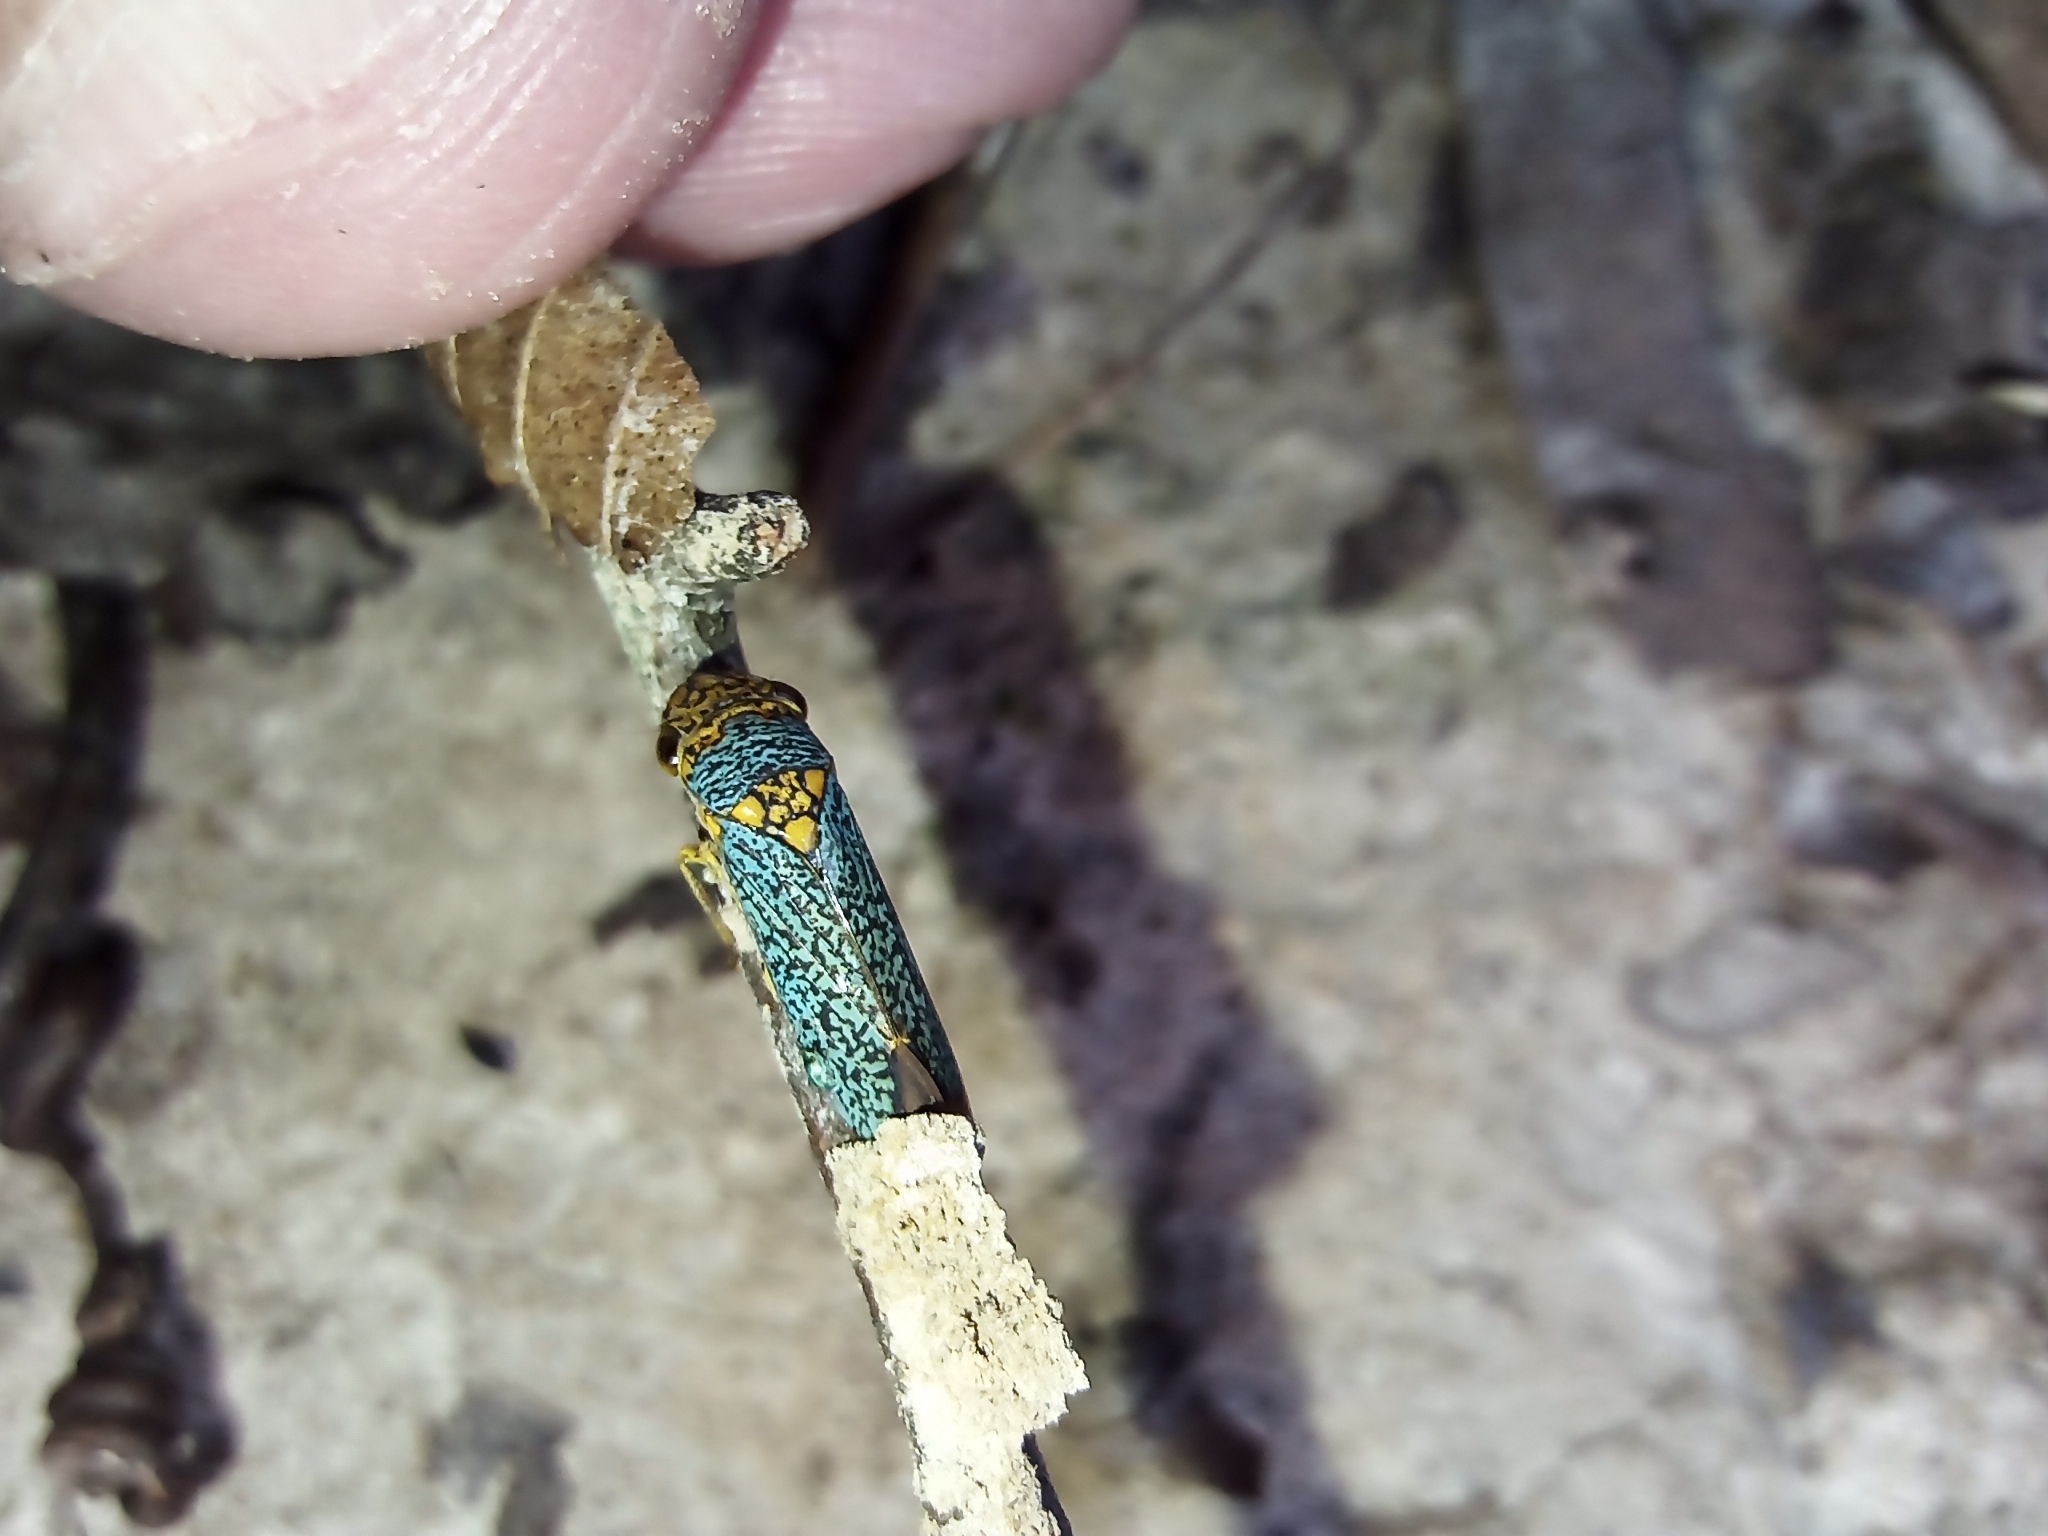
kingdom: Animalia
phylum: Arthropoda
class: Insecta
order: Hemiptera
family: Cicadellidae
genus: Oncometopia
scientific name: Oncometopia orbona
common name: Broad-headed sharpshooter
